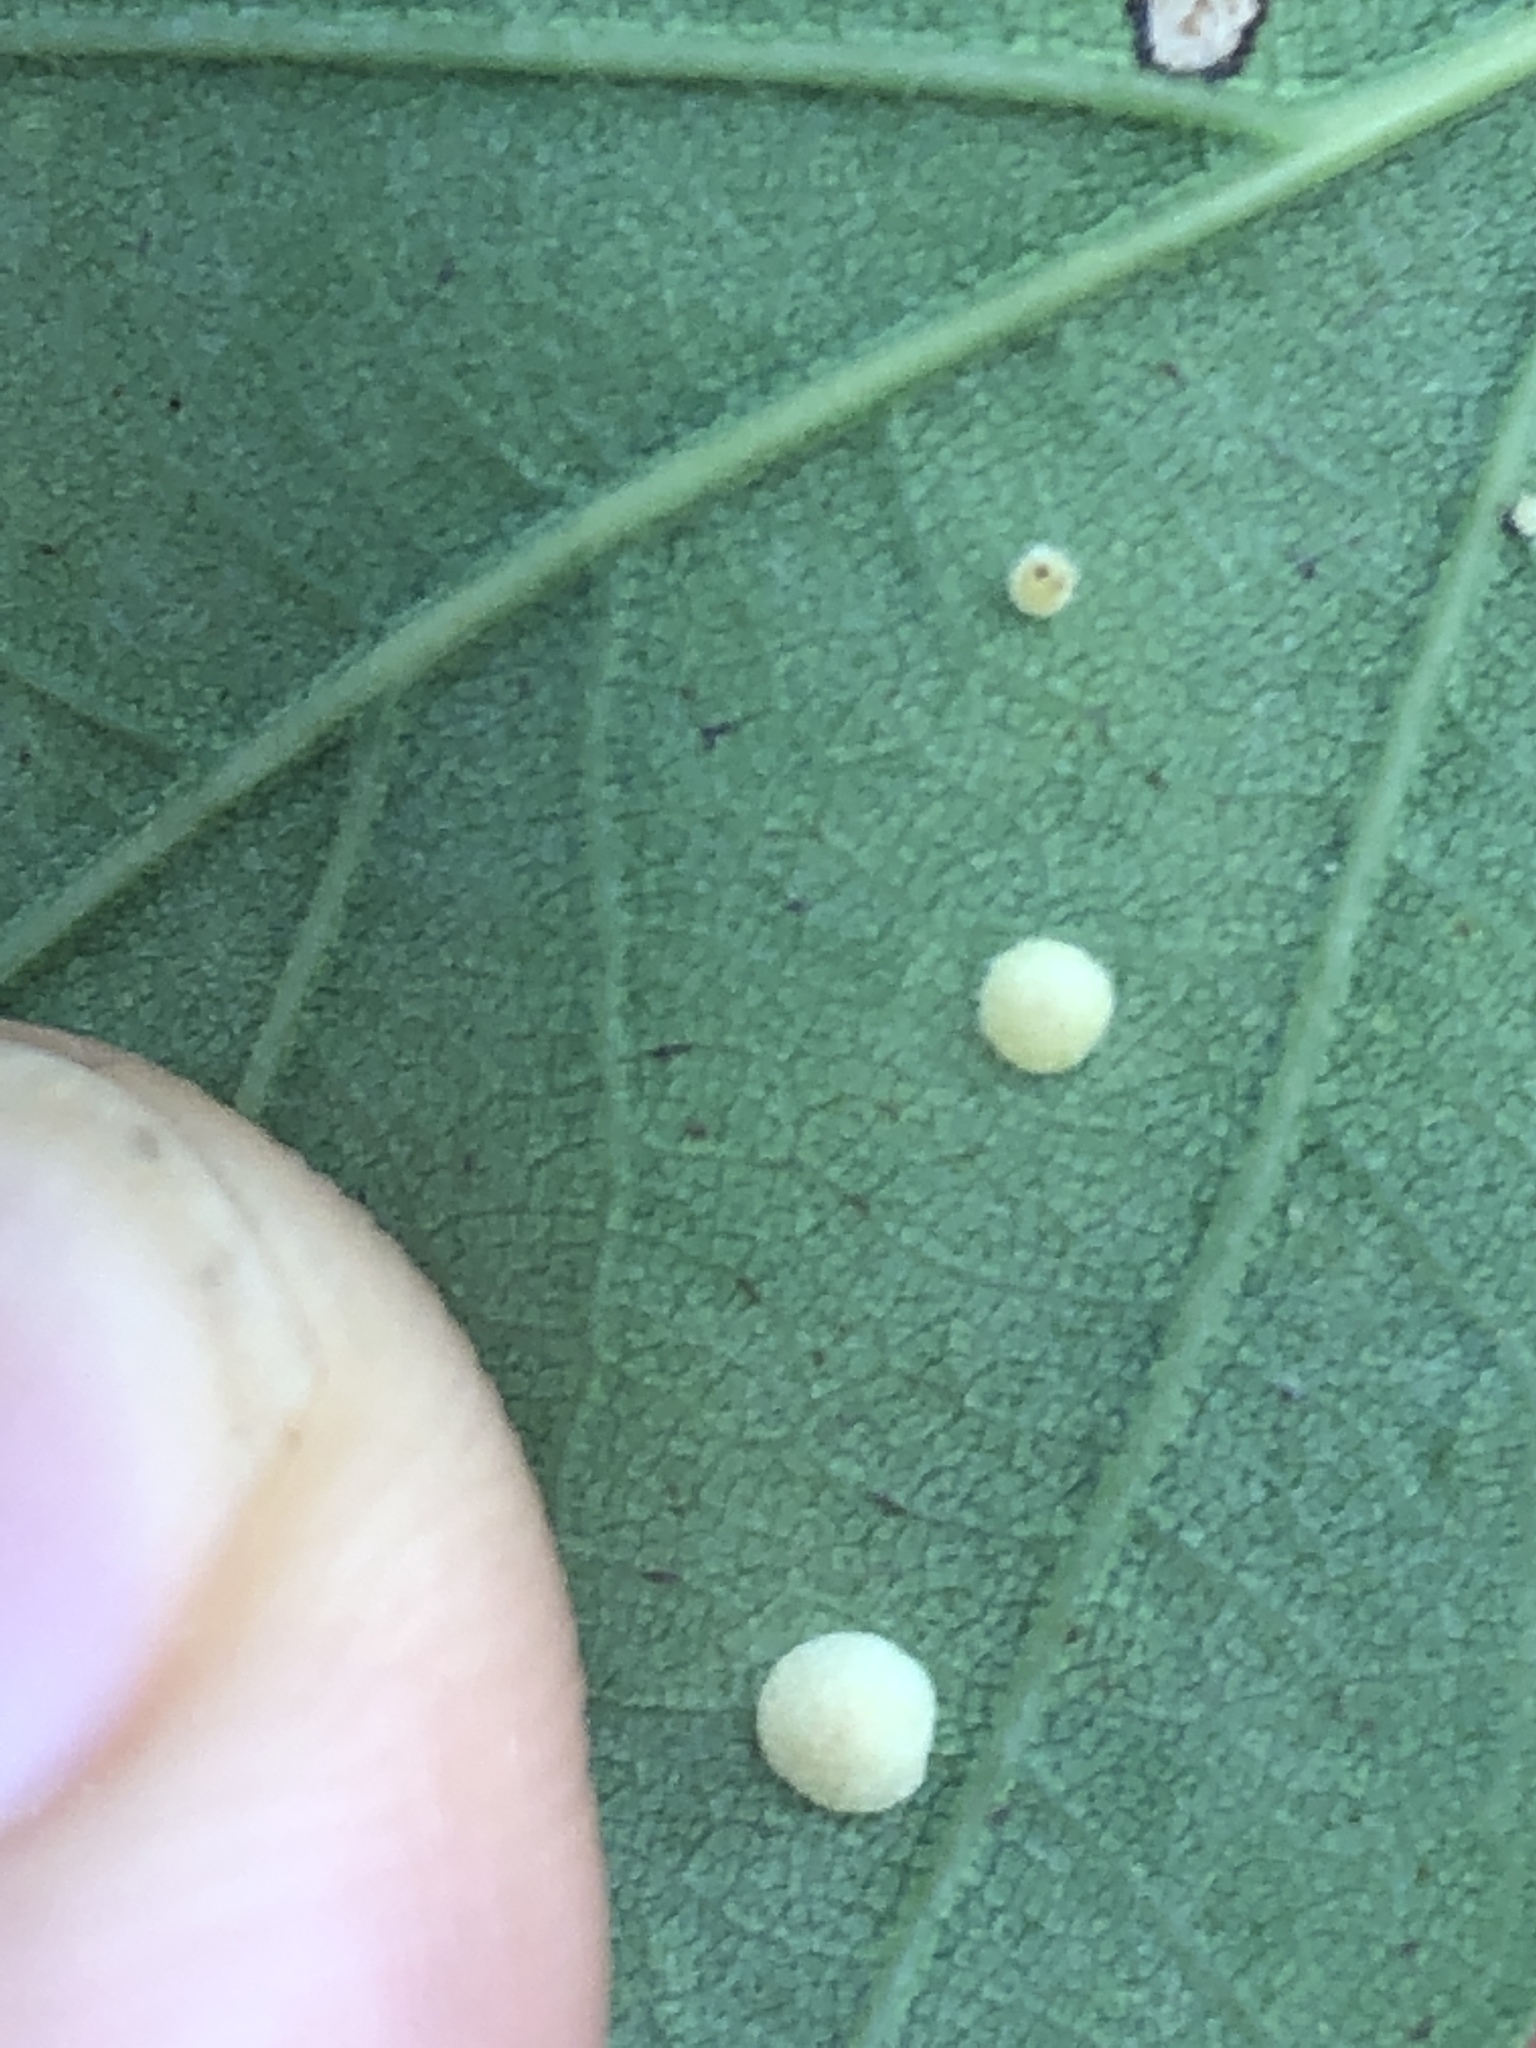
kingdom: Animalia
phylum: Arthropoda
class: Insecta
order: Hymenoptera
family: Cynipidae
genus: Neuroterus
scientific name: Neuroterus quercusbaccarum
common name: Common spangle gall
